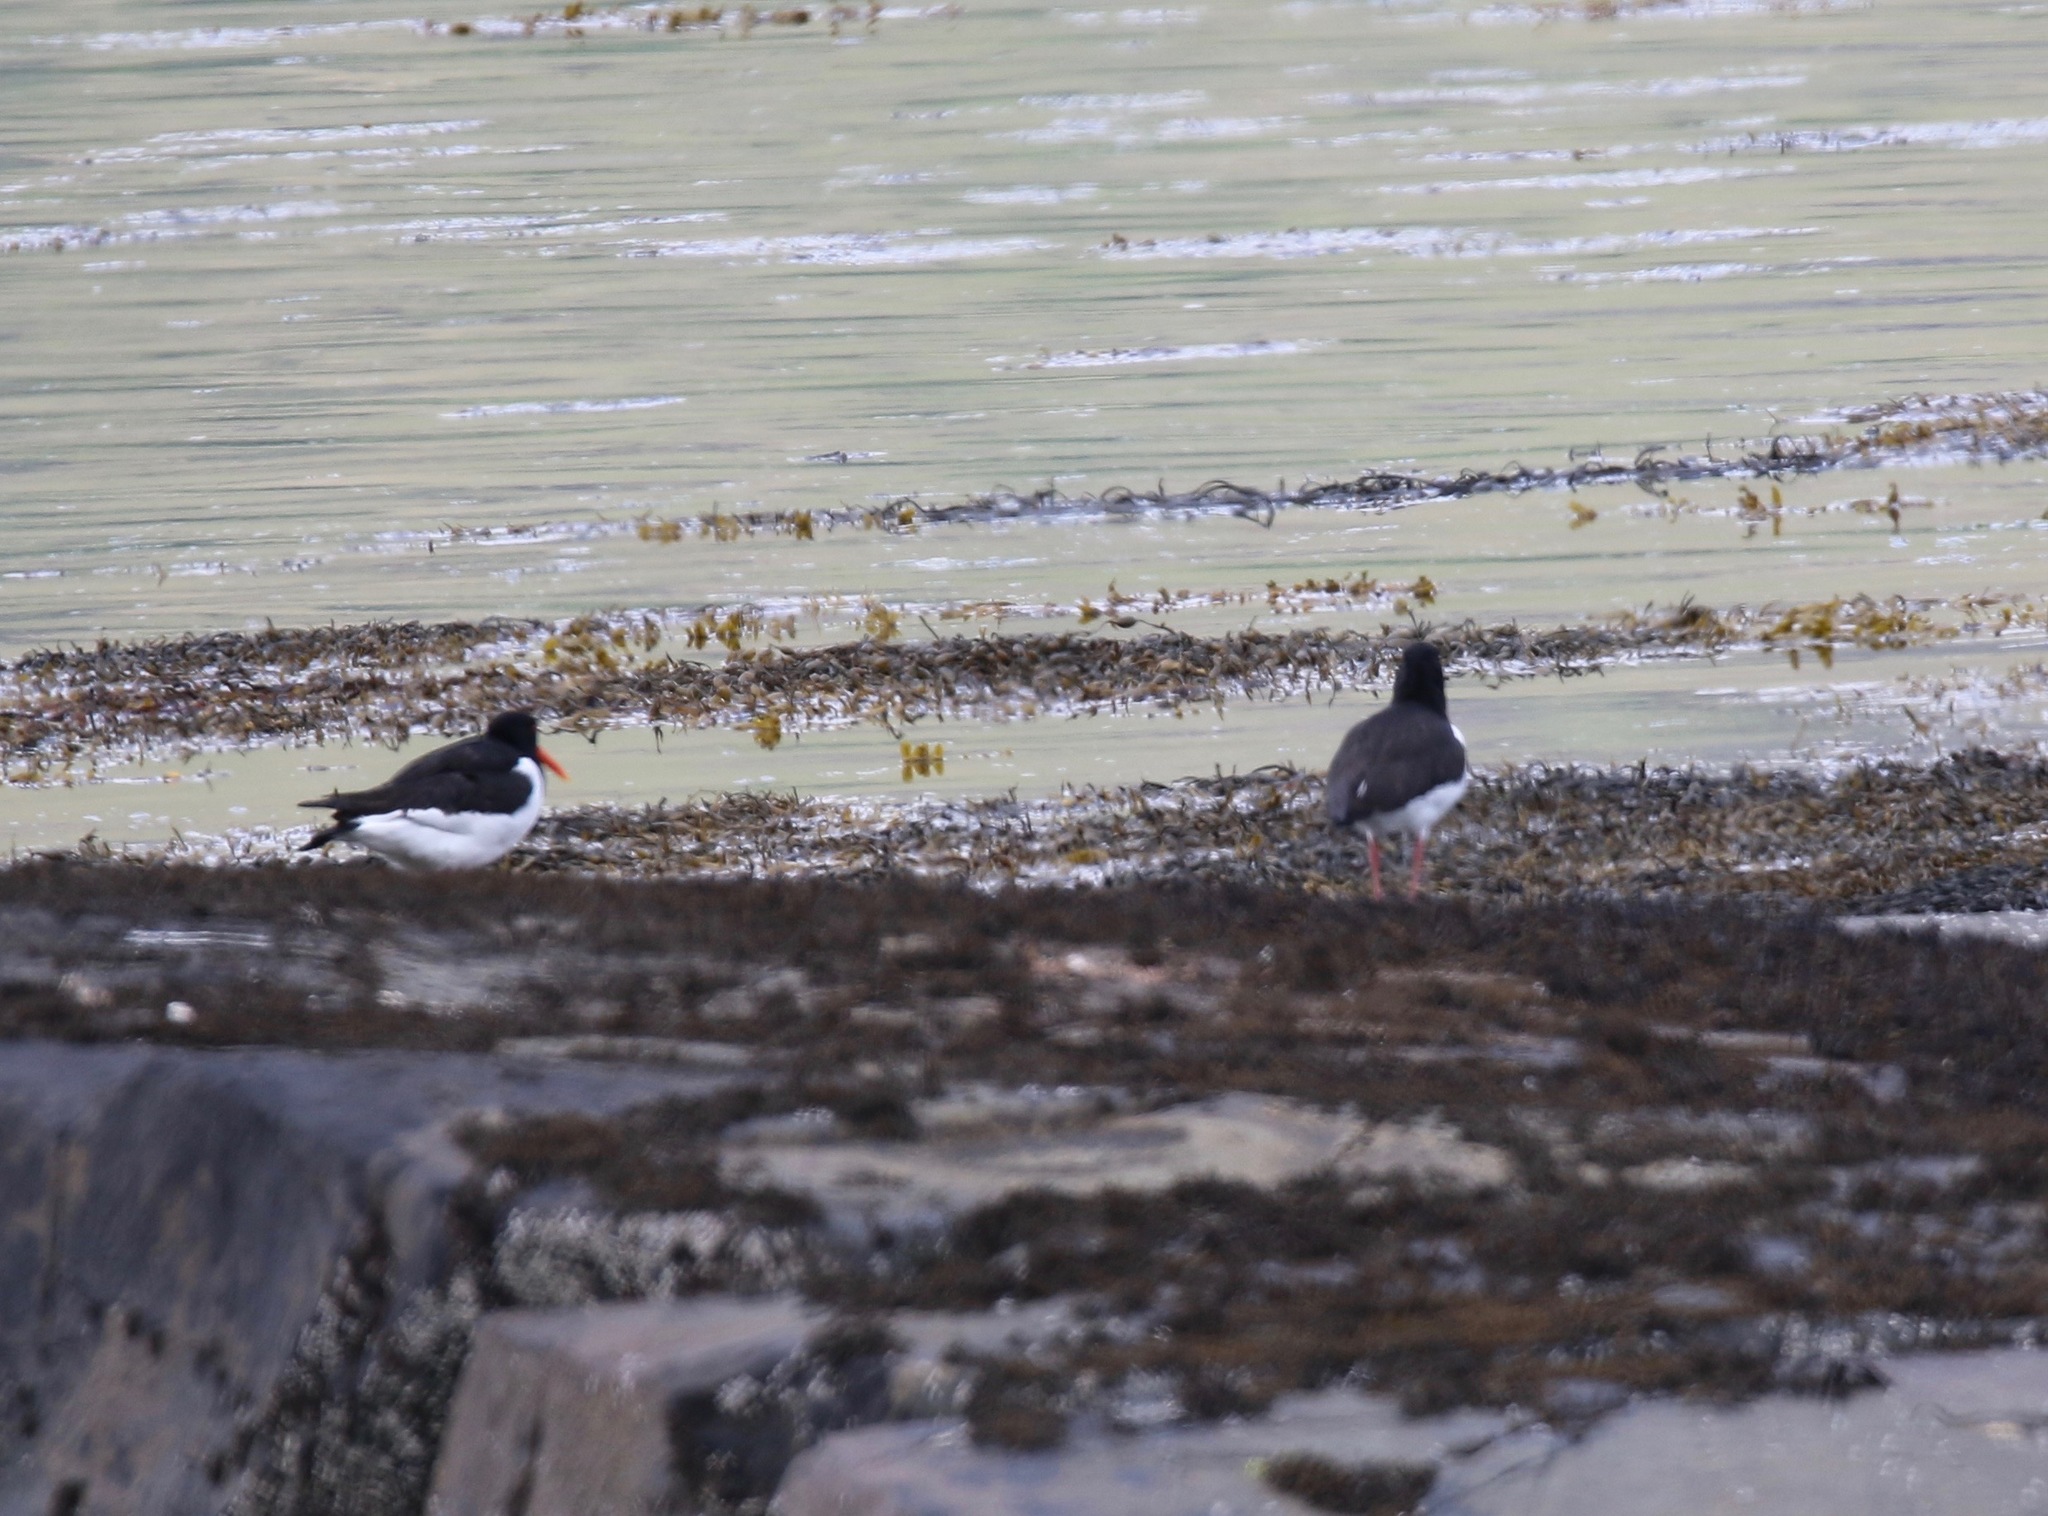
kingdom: Animalia
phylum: Chordata
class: Aves
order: Charadriiformes
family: Haematopodidae
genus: Haematopus
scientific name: Haematopus ostralegus
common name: Eurasian oystercatcher
